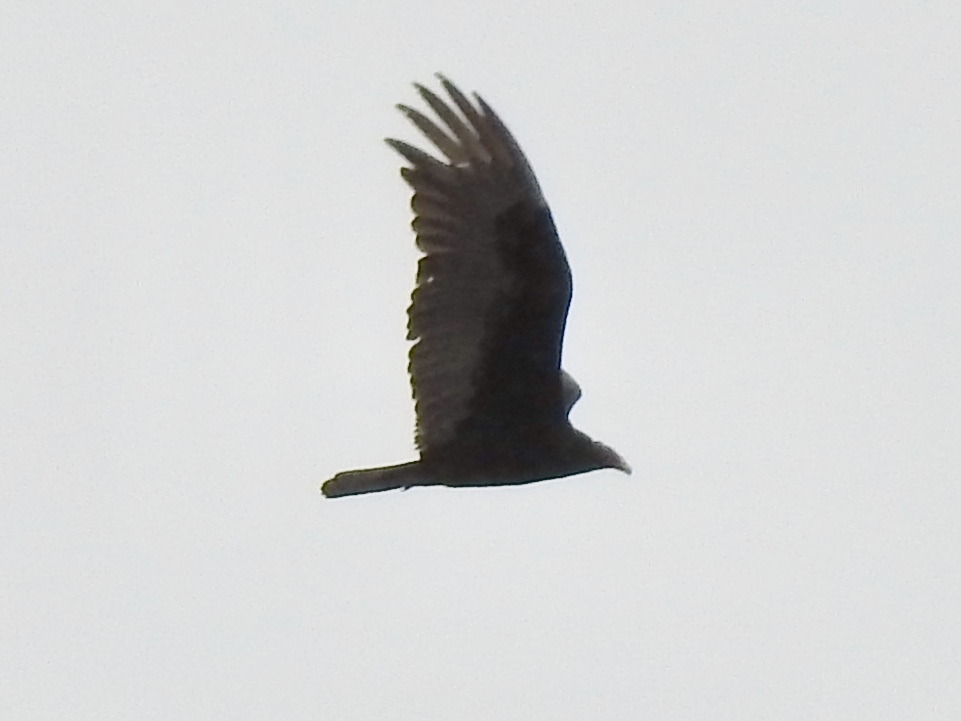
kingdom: Animalia
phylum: Chordata
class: Aves
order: Accipitriformes
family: Cathartidae
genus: Cathartes
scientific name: Cathartes aura
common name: Turkey vulture
